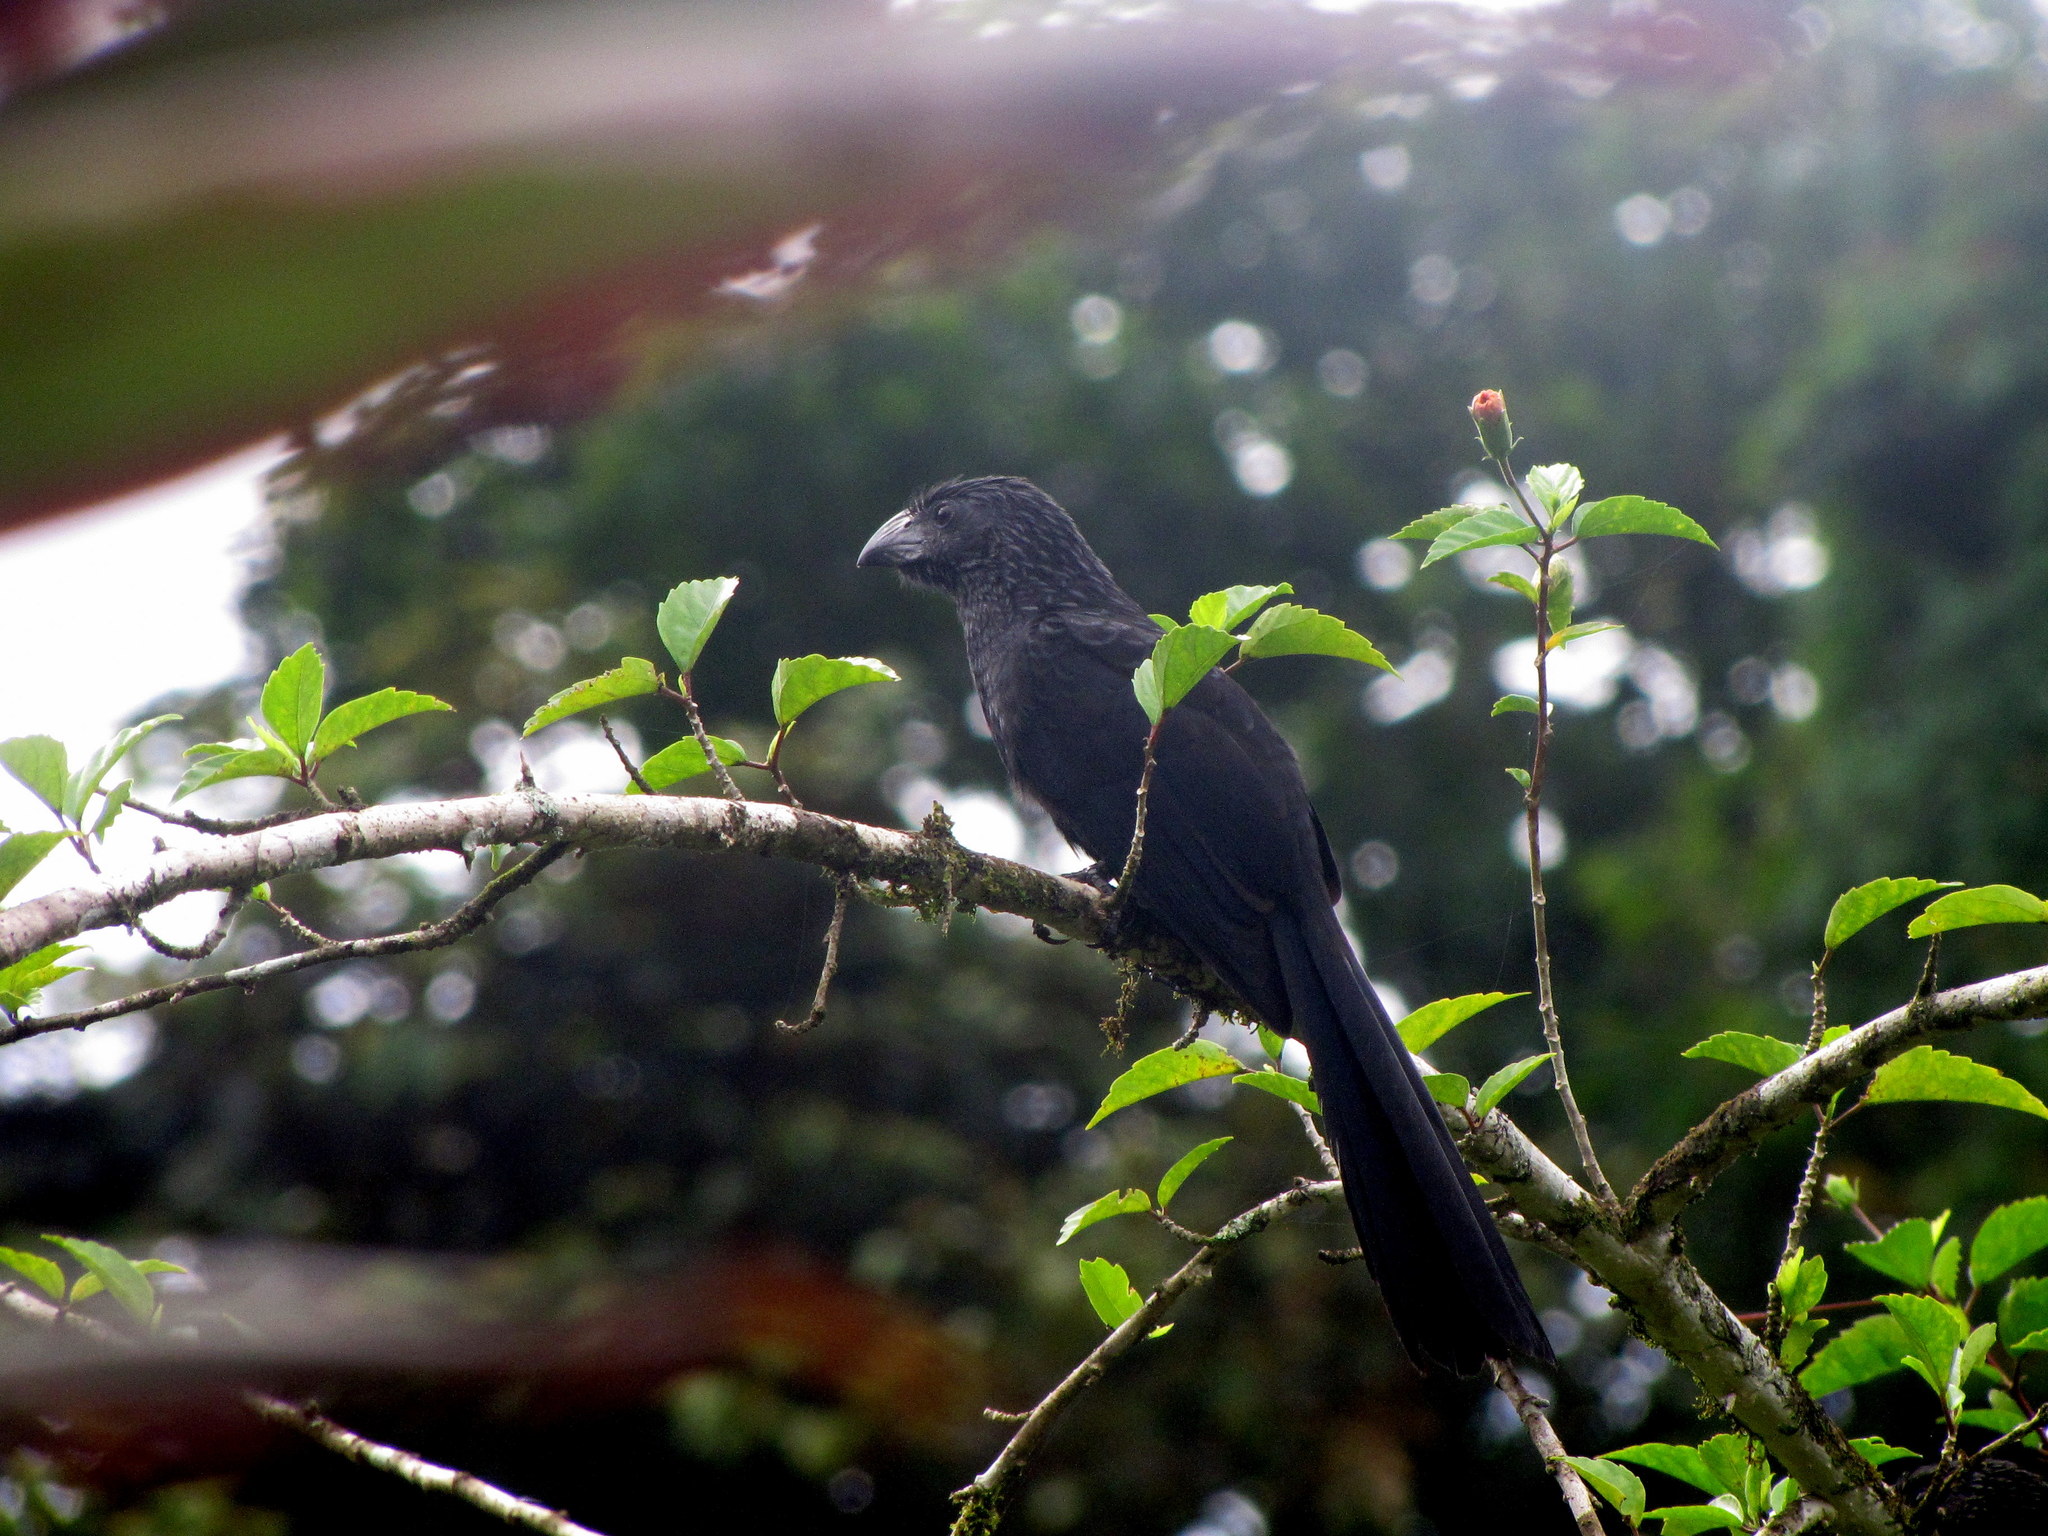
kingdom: Animalia
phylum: Chordata
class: Aves
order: Cuculiformes
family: Cuculidae
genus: Crotophaga
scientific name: Crotophaga sulcirostris
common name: Groove-billed ani
